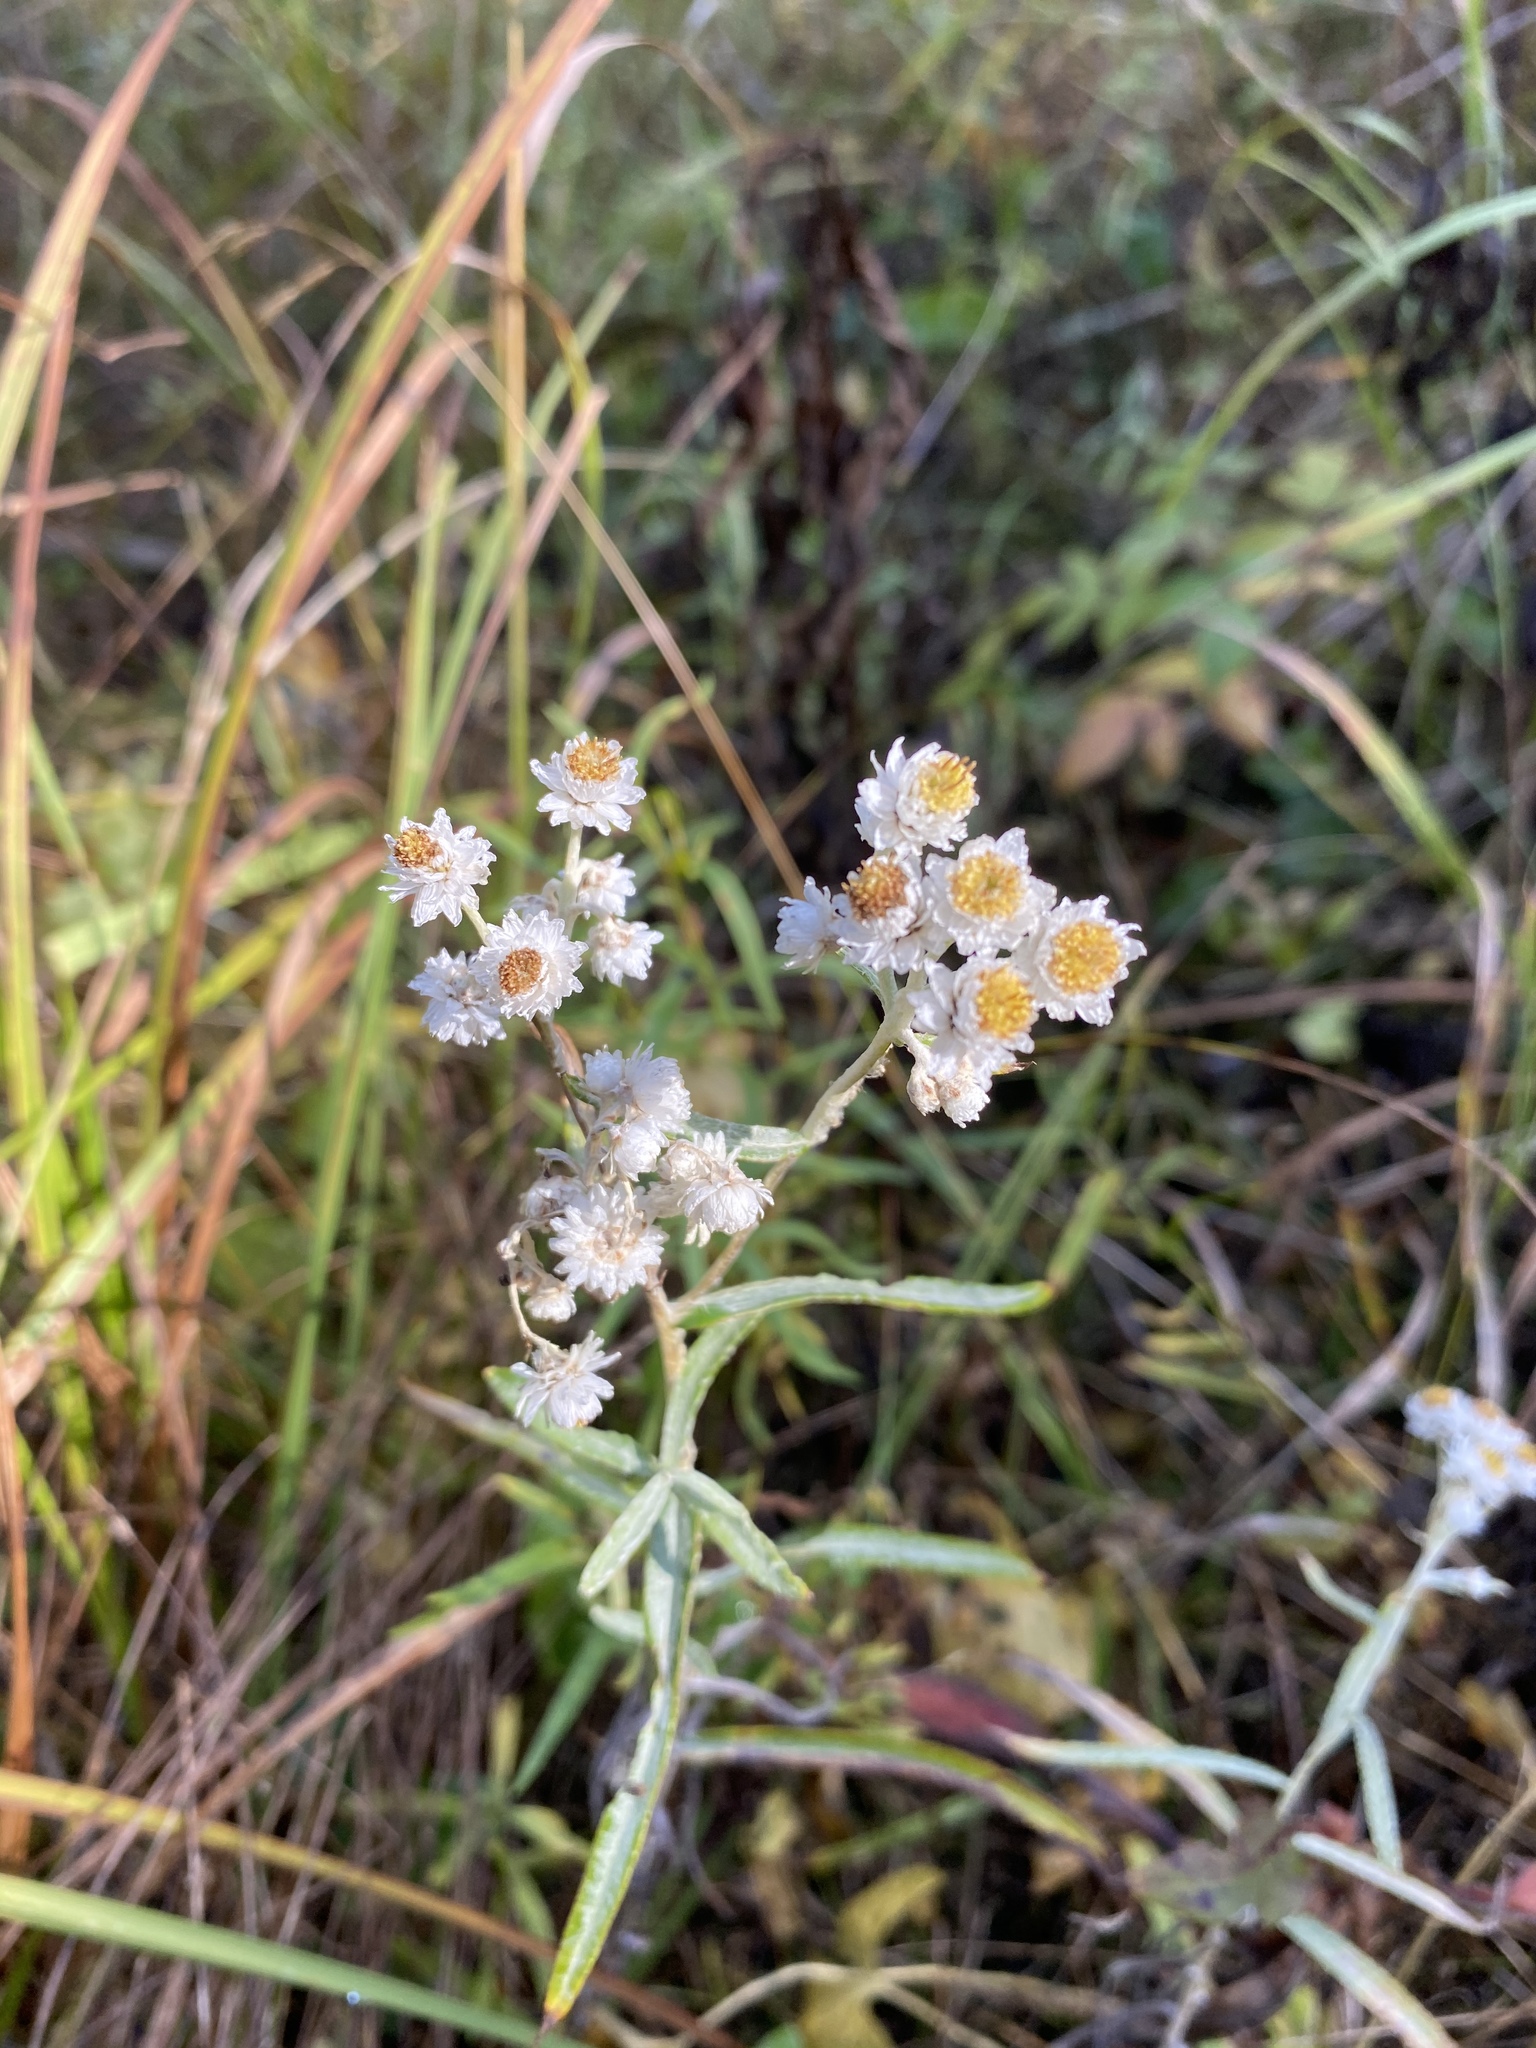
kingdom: Plantae
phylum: Tracheophyta
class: Magnoliopsida
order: Asterales
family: Asteraceae
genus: Anaphalis
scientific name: Anaphalis margaritacea
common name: Pearly everlasting
